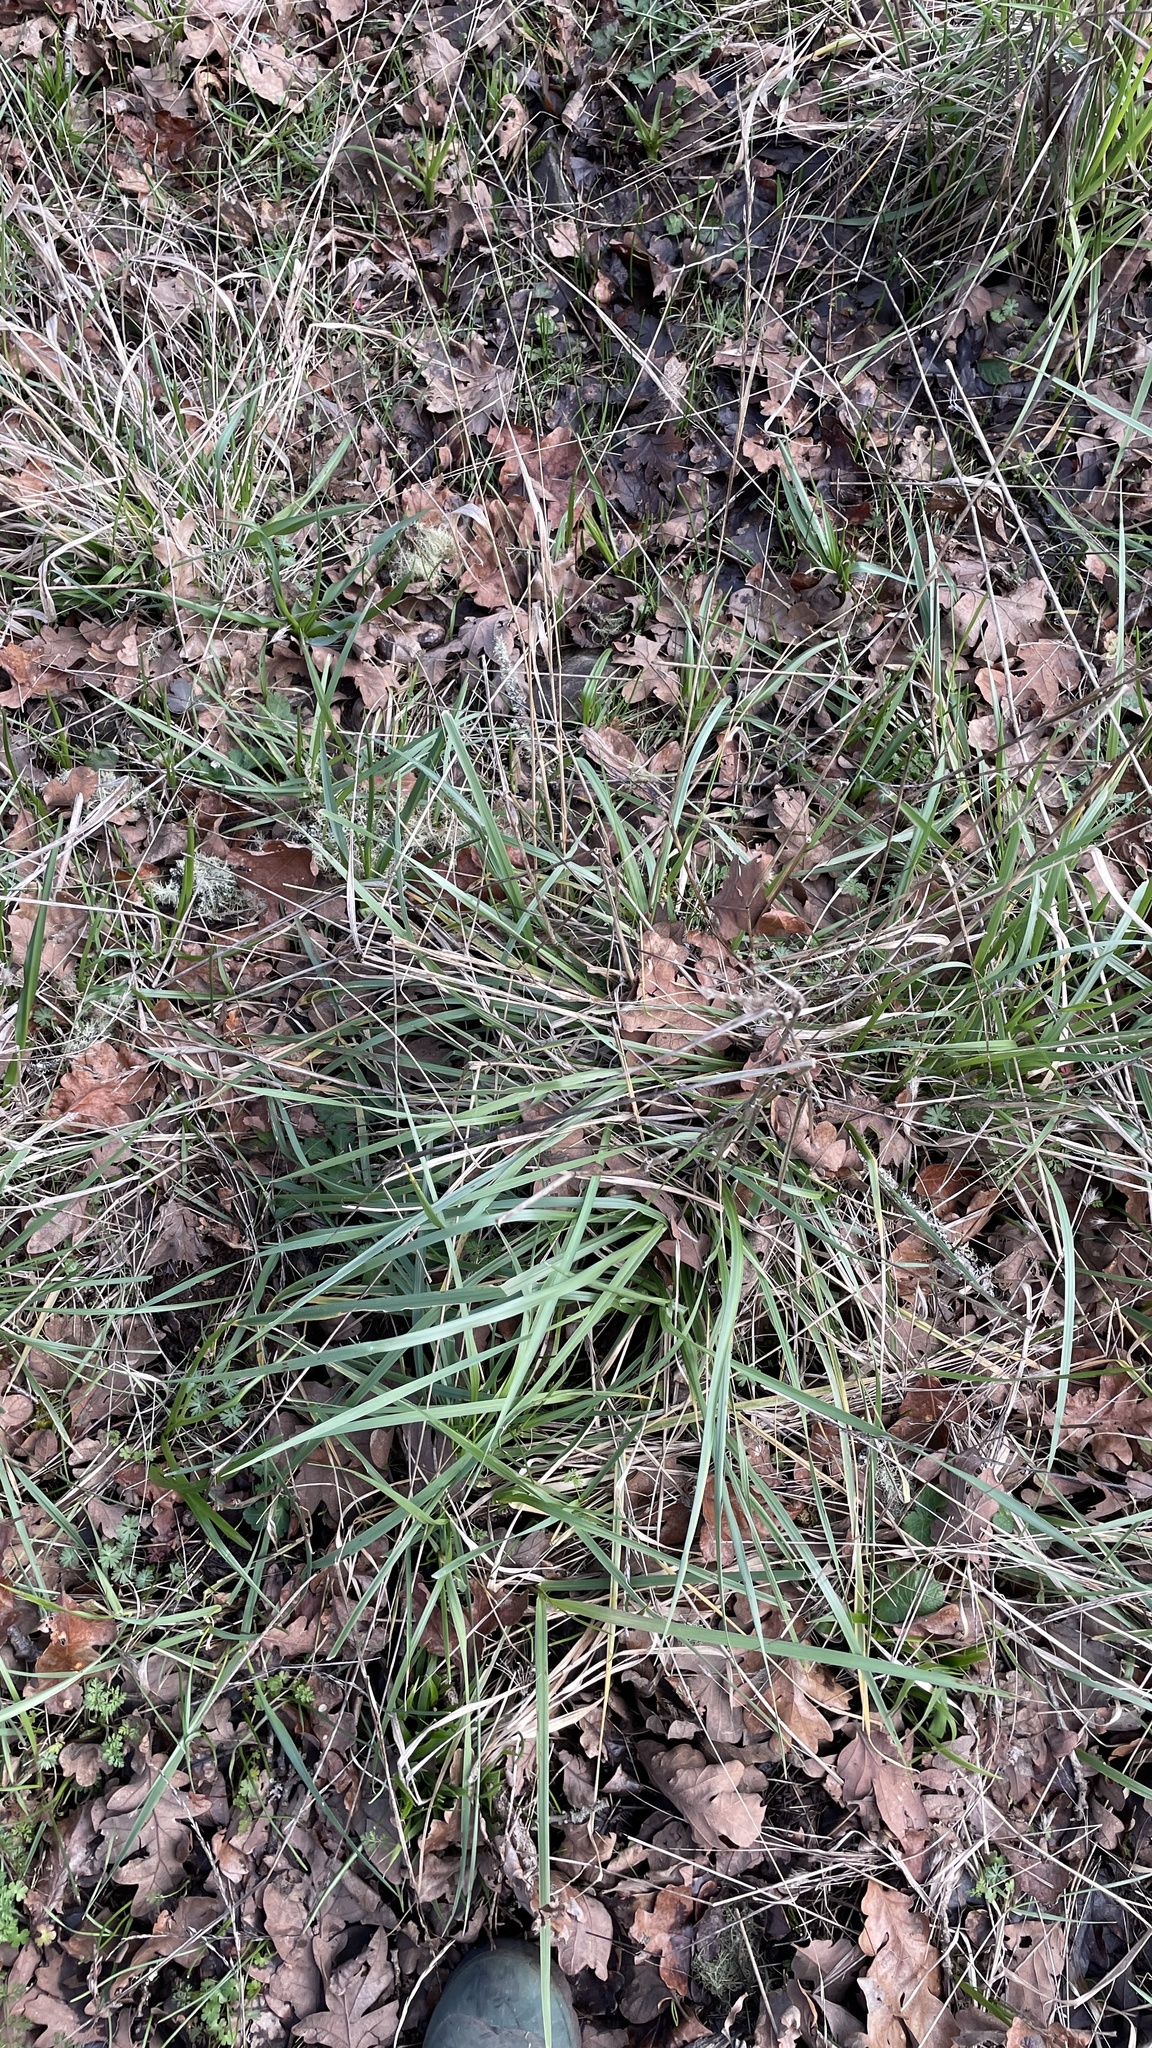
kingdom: Plantae
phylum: Tracheophyta
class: Liliopsida
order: Poales
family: Poaceae
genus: Lolium
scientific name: Lolium arundinaceum
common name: Reed fescue
